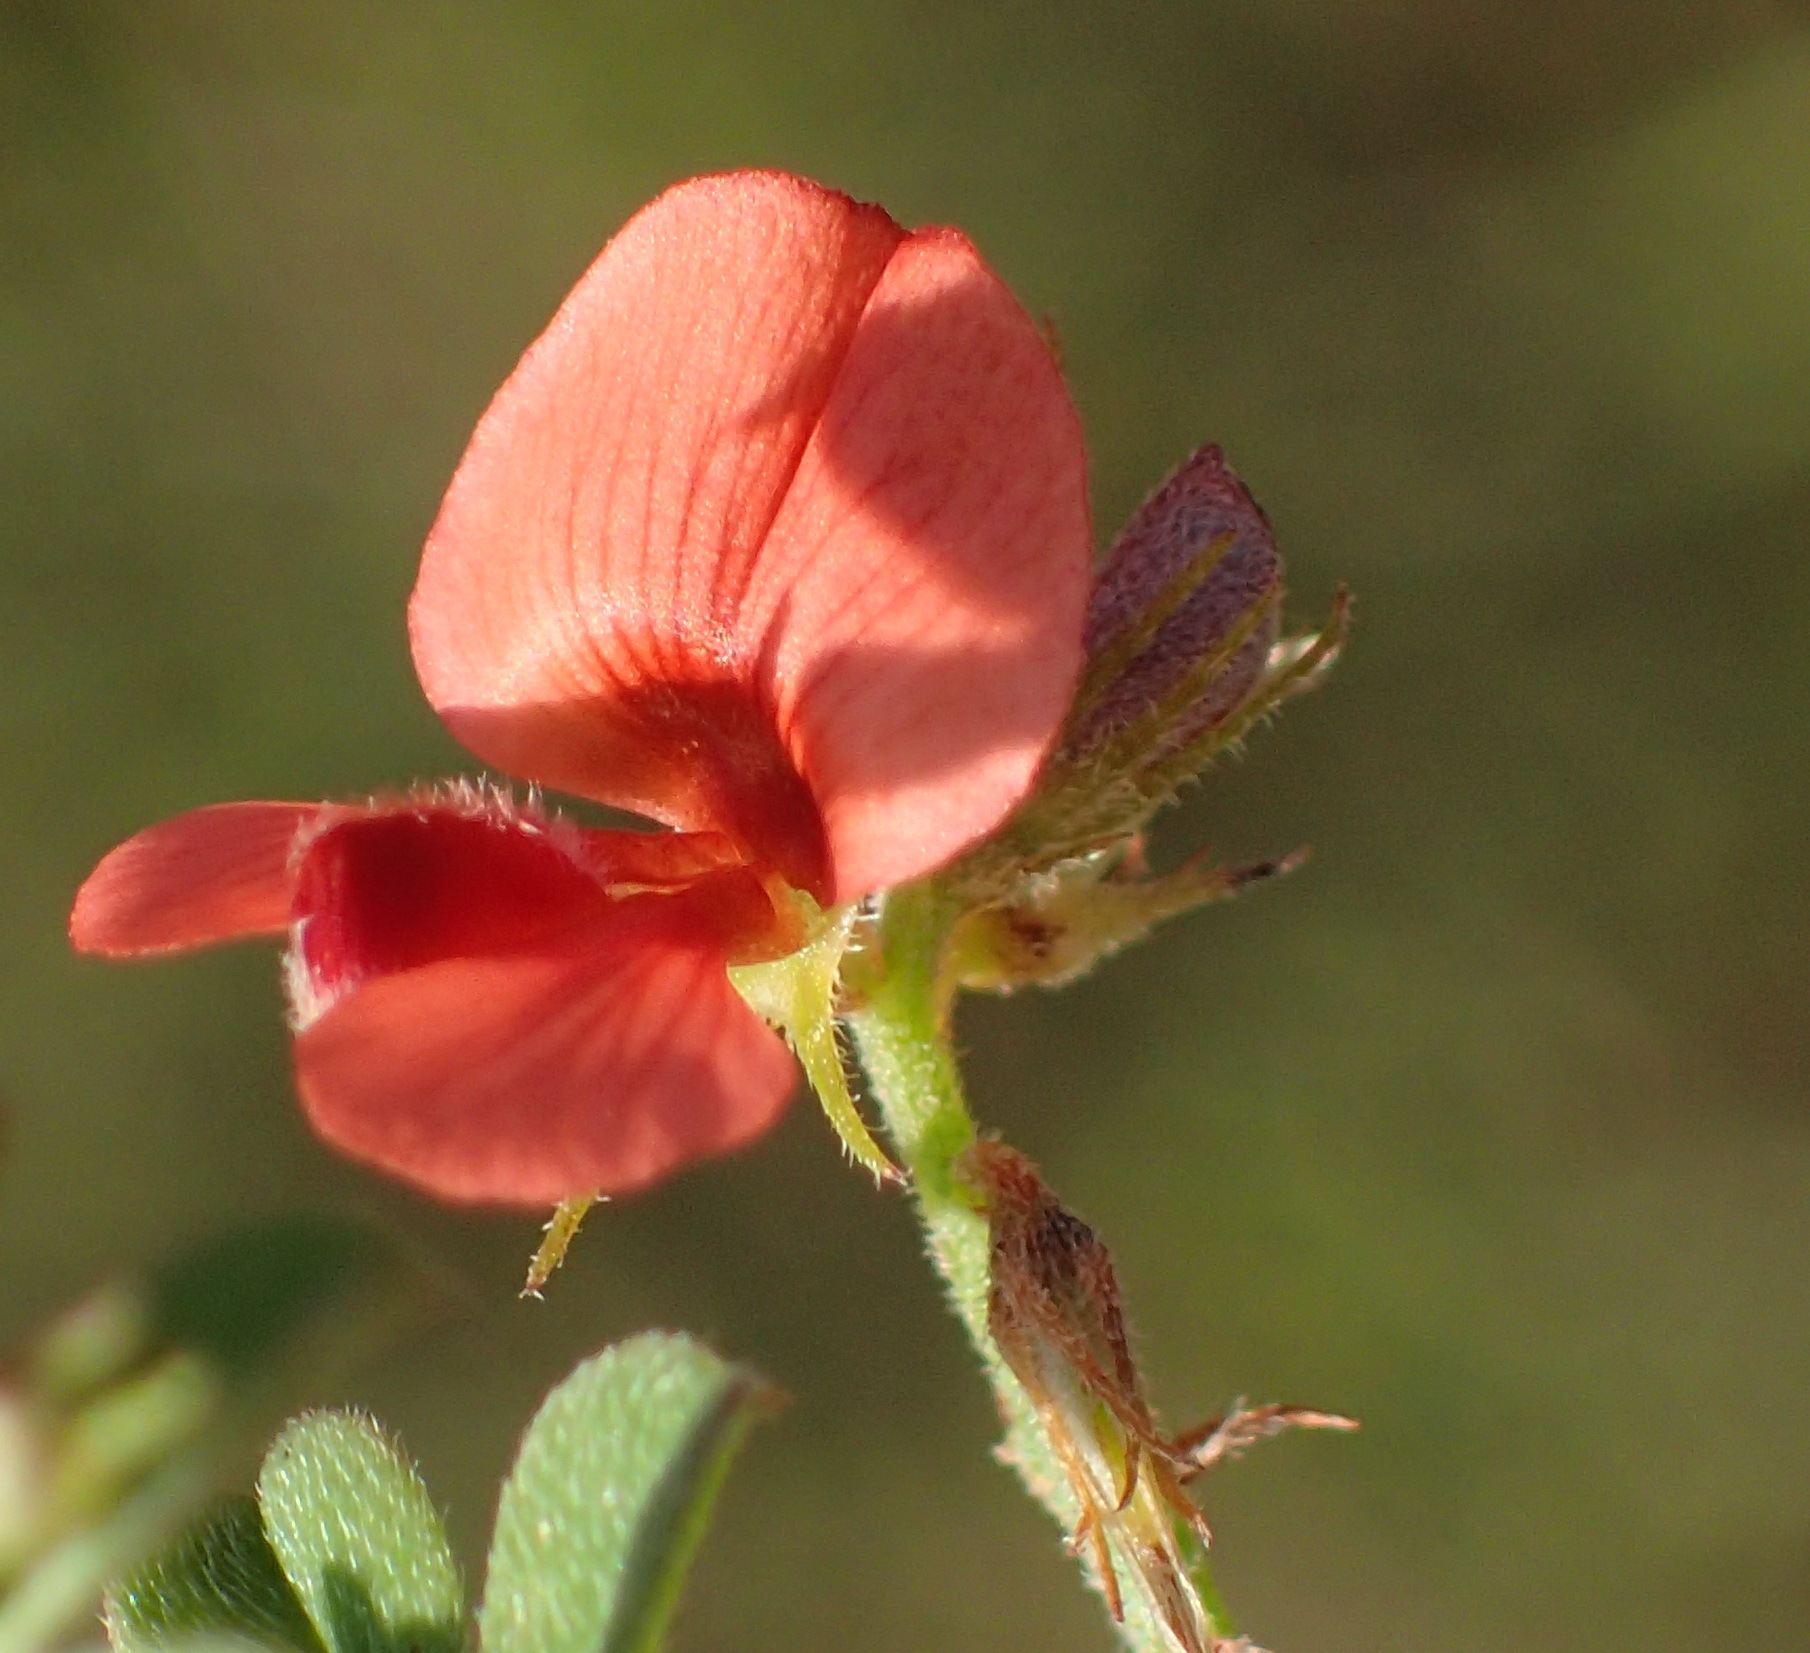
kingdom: Plantae
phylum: Tracheophyta
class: Magnoliopsida
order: Fabales
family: Fabaceae
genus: Indigofera
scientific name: Indigofera priorii
